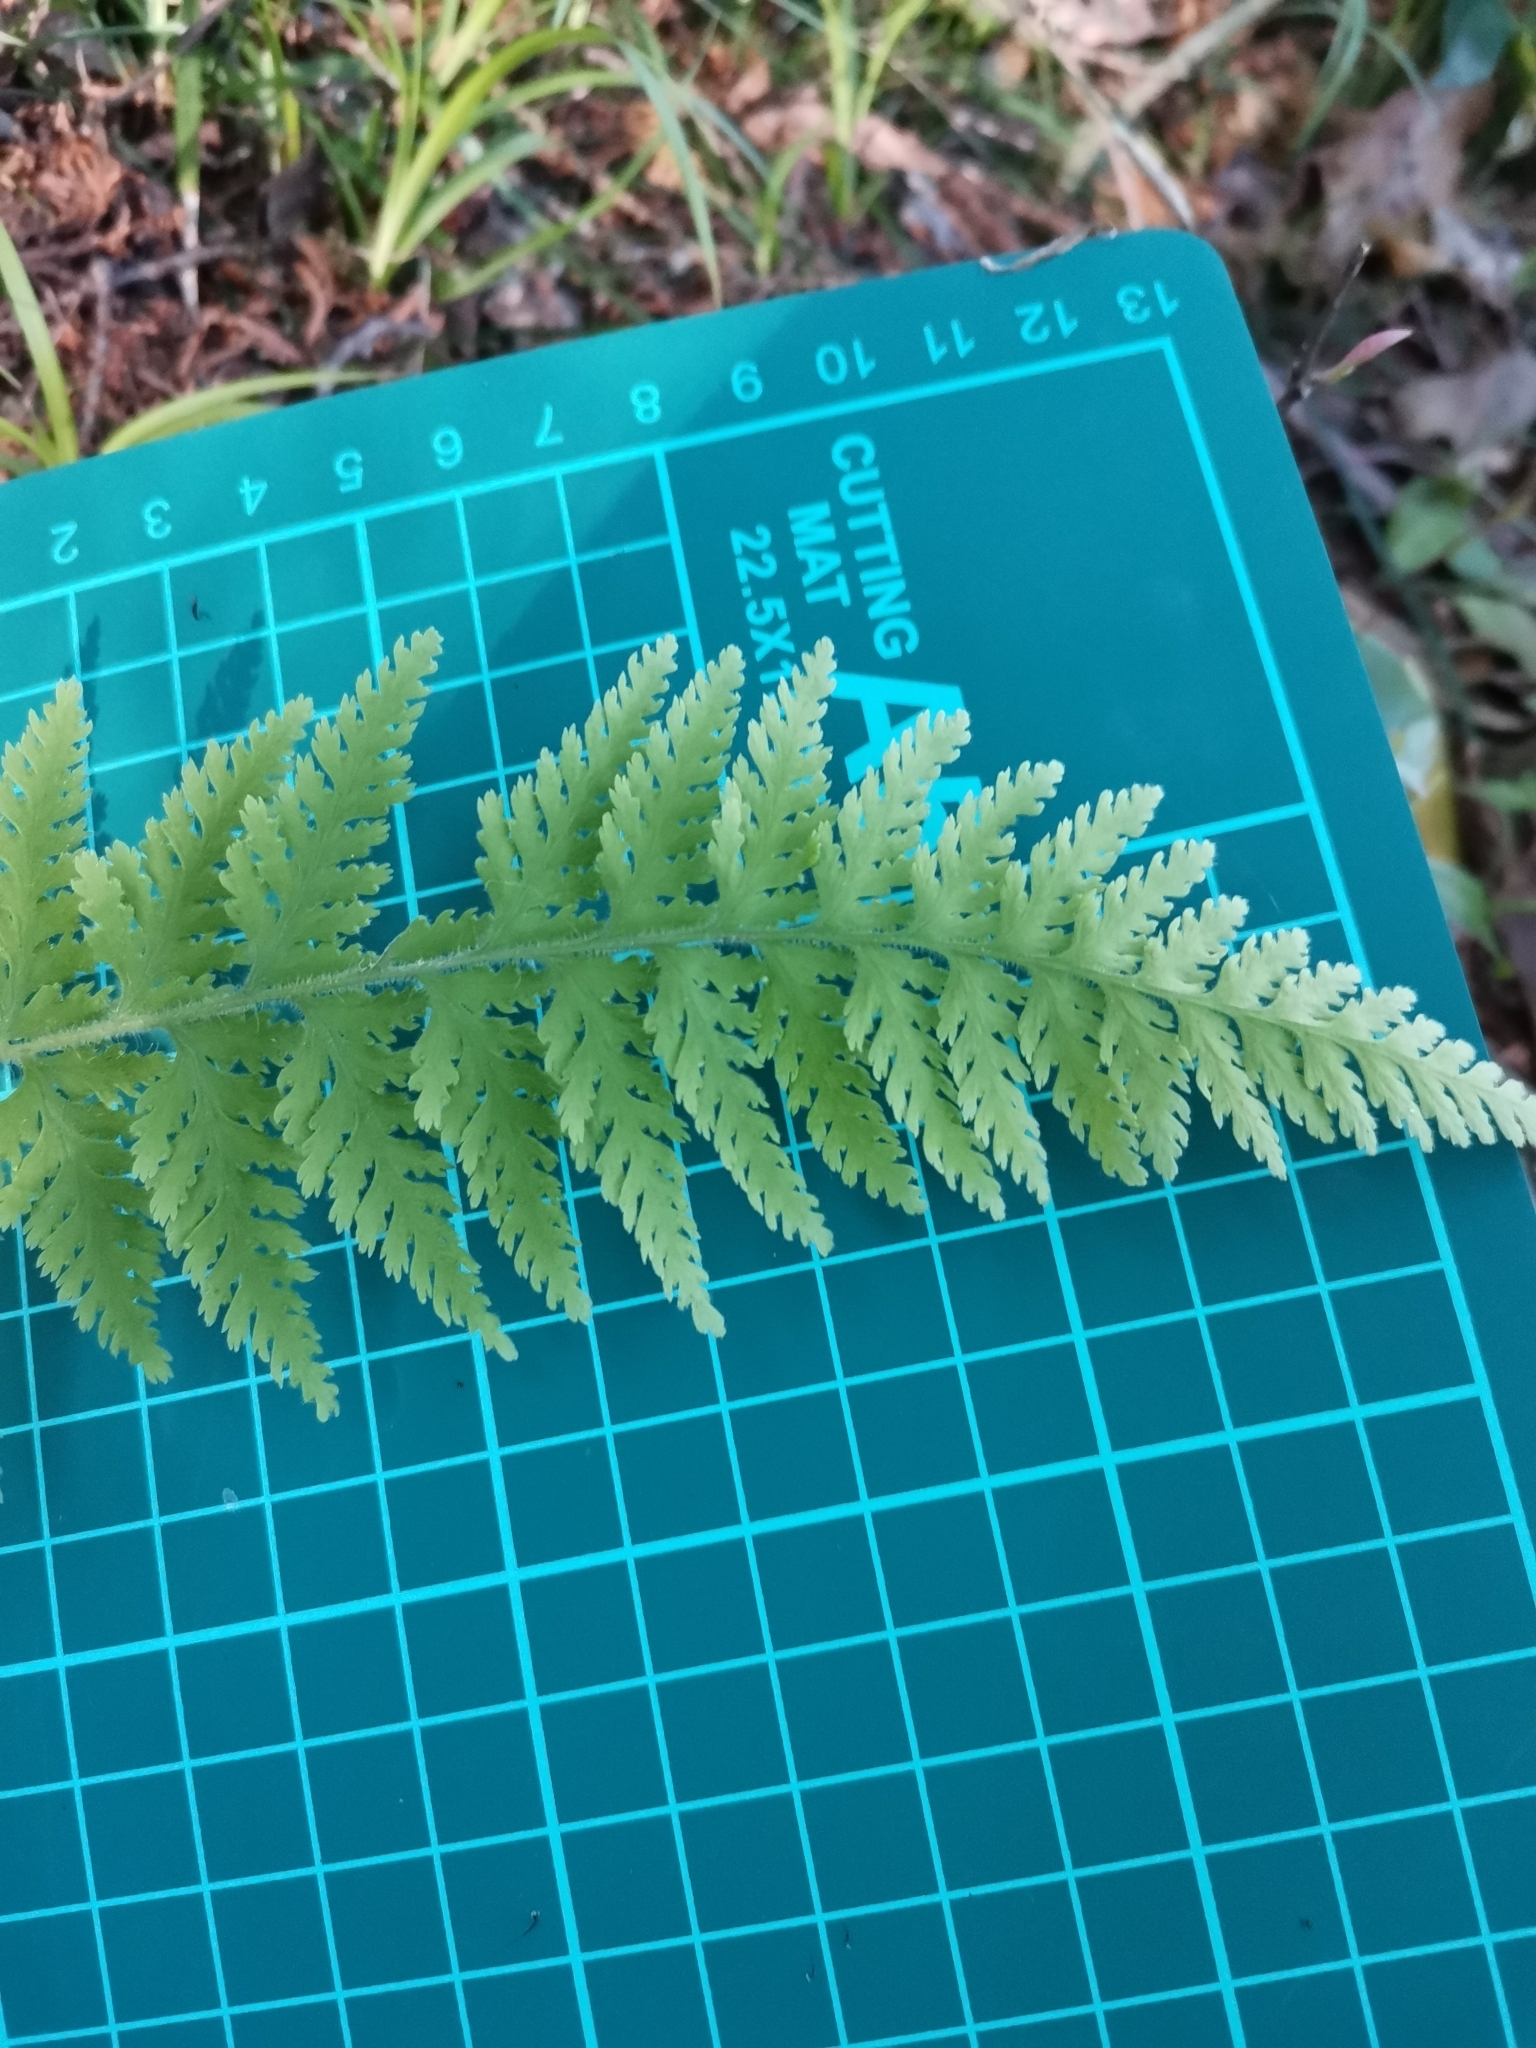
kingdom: Plantae
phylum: Tracheophyta
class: Polypodiopsida
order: Polypodiales
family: Dennstaedtiaceae
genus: Sitobolium
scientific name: Sitobolium hirsutum
